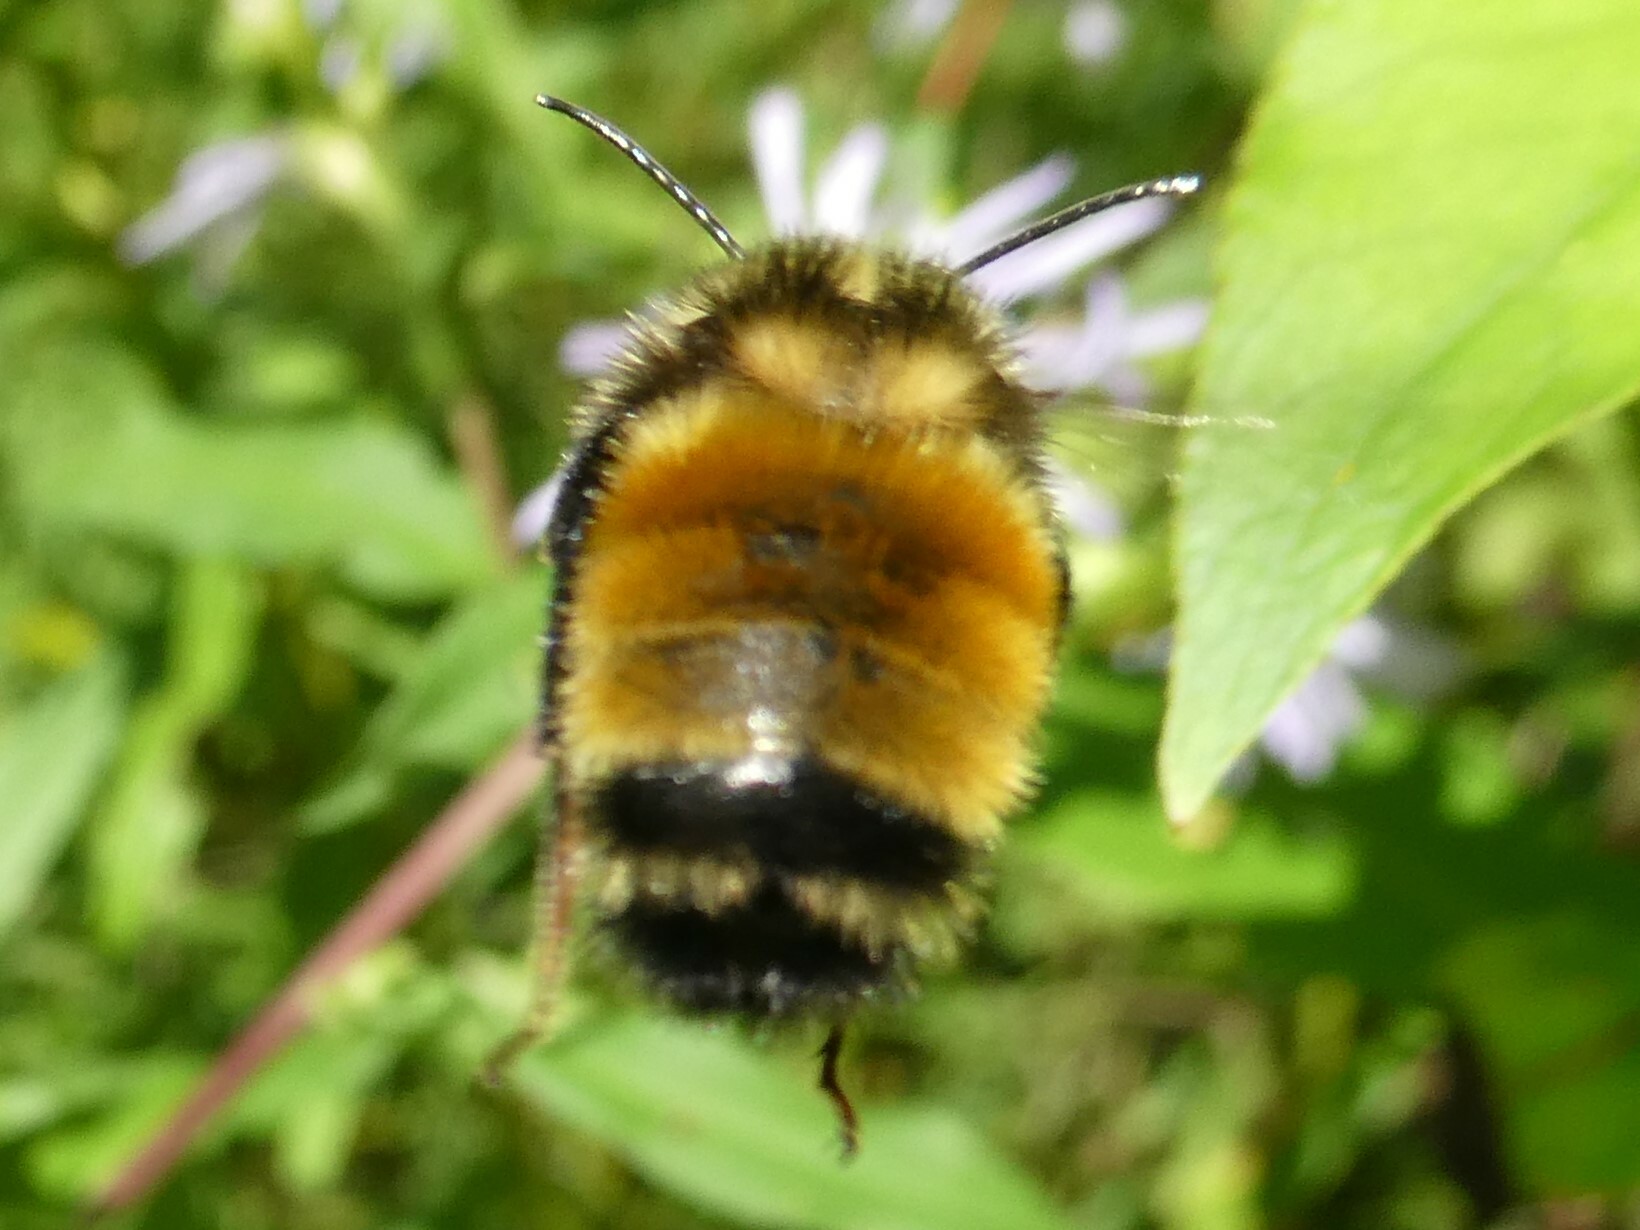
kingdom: Animalia
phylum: Arthropoda
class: Insecta
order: Hymenoptera
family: Apidae
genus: Bombus
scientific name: Bombus borealis
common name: Northern amber bumble bee
